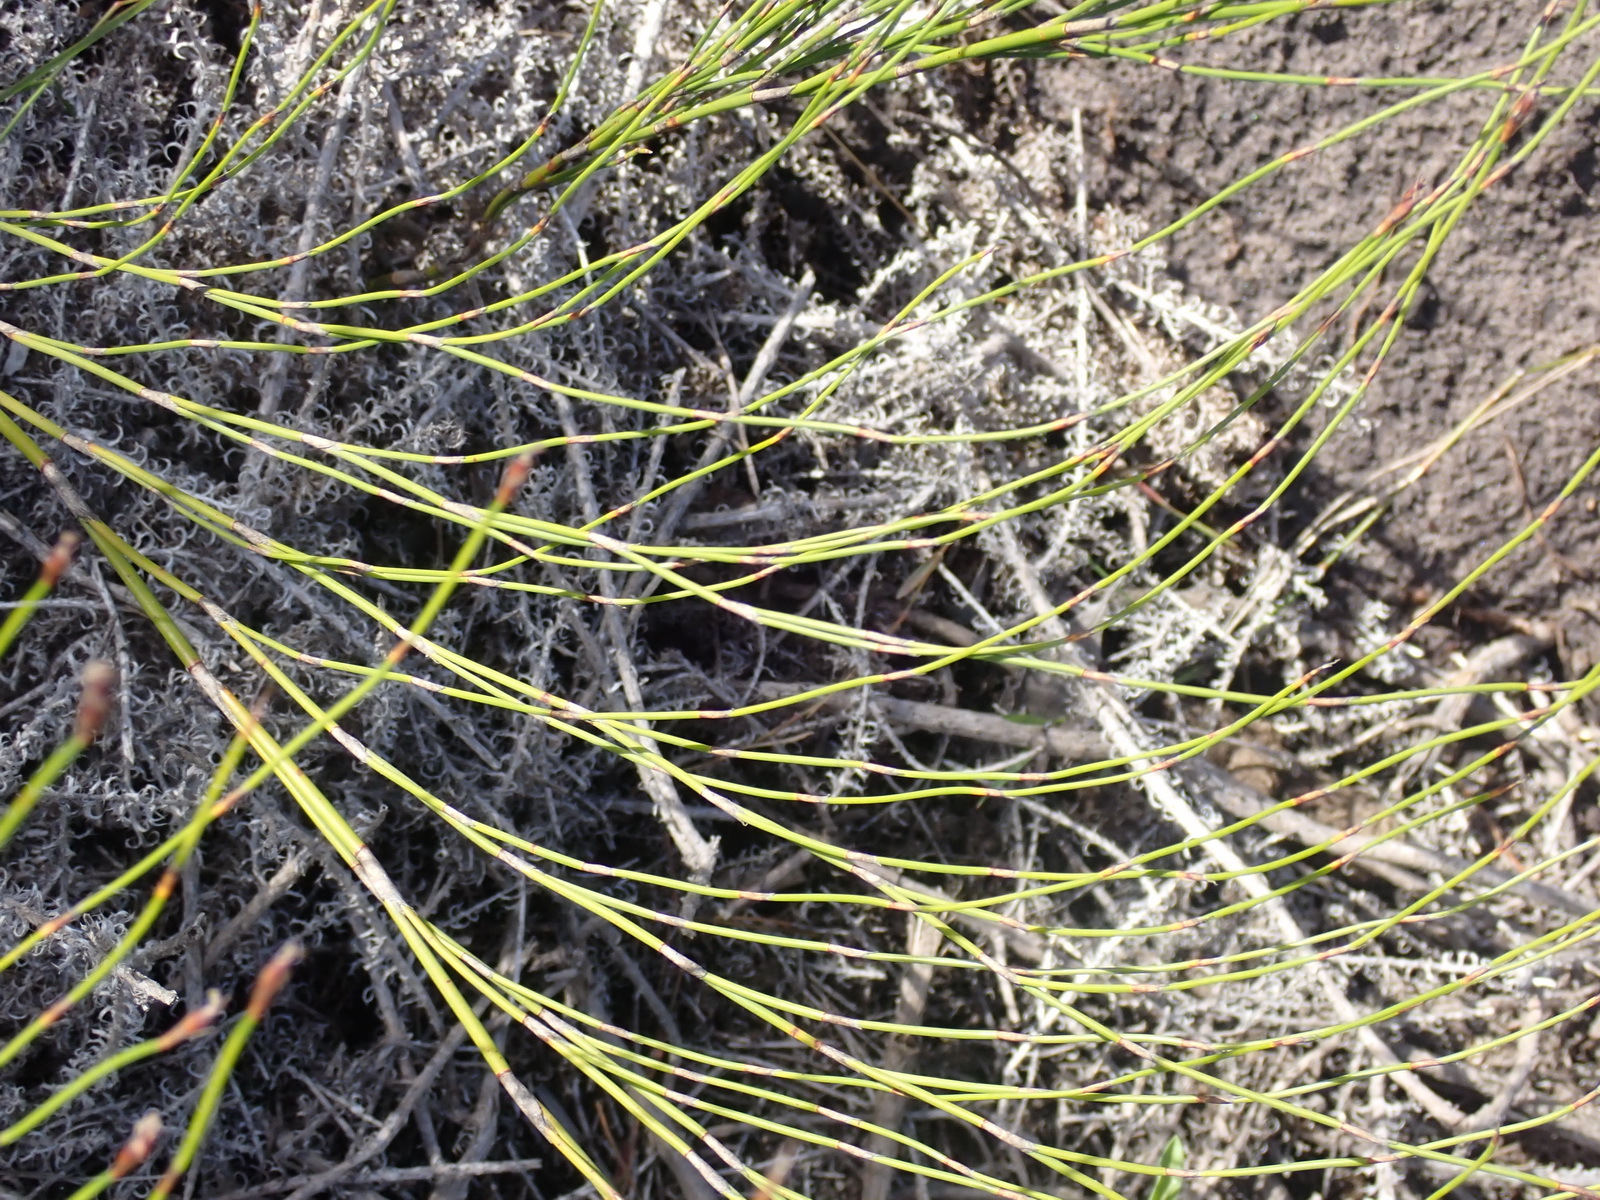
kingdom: Plantae
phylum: Tracheophyta
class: Liliopsida
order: Poales
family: Restionaceae
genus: Restio
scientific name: Restio leptoclados
